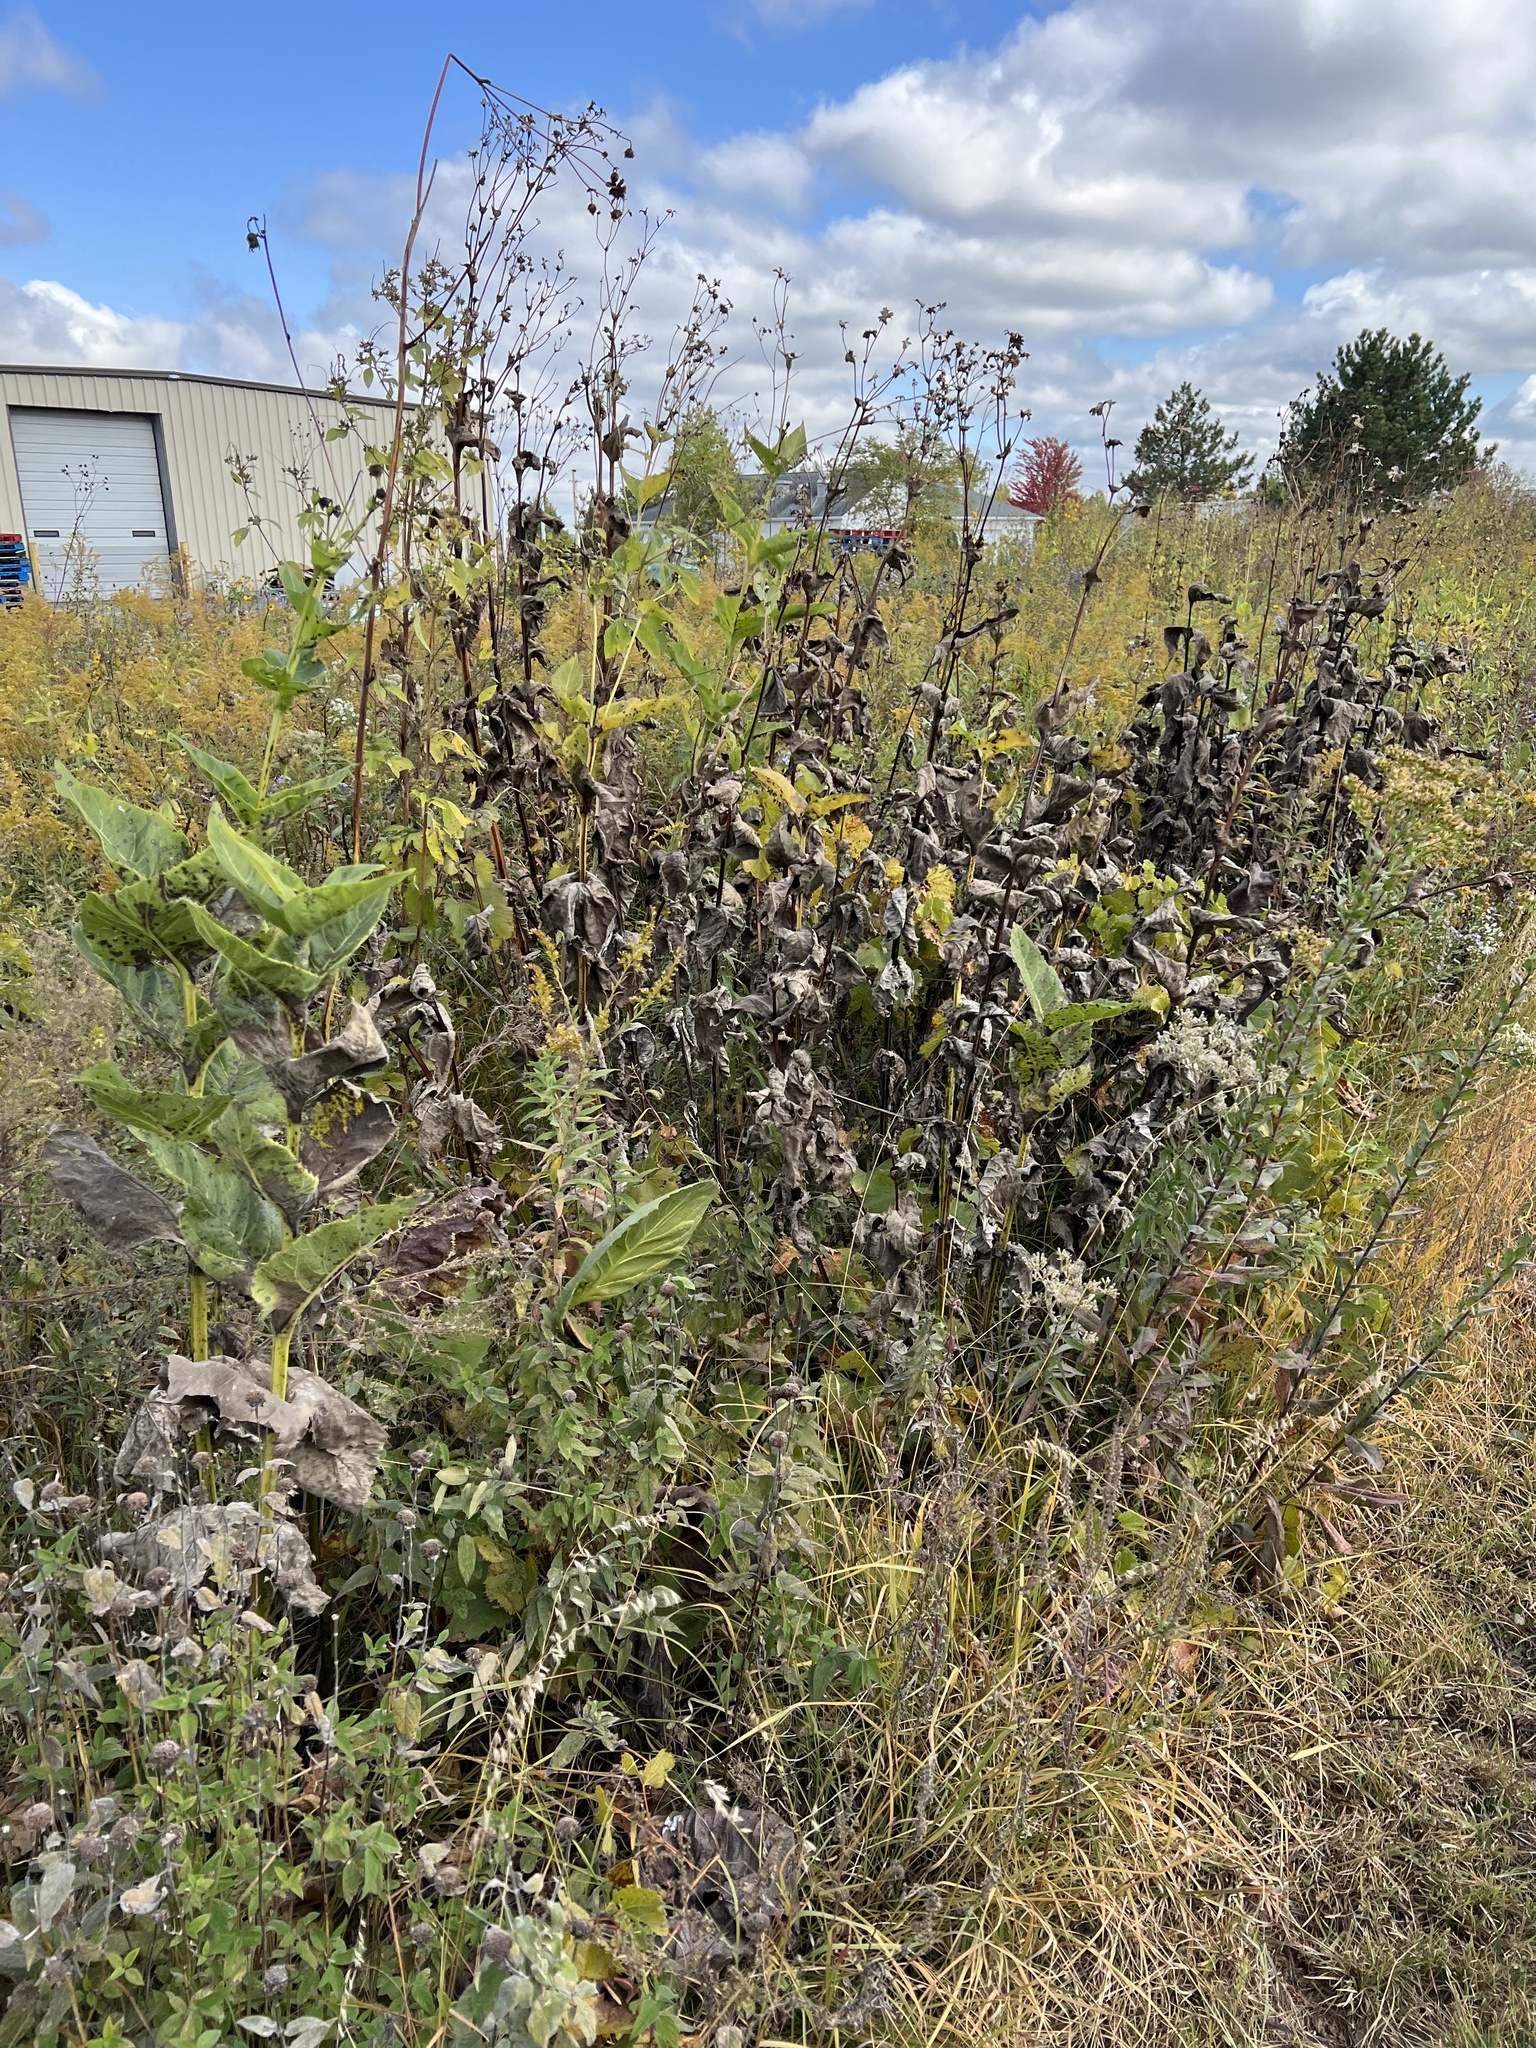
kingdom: Plantae
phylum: Tracheophyta
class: Magnoliopsida
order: Asterales
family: Asteraceae
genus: Silphium
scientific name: Silphium perfoliatum
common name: Cup-plant
